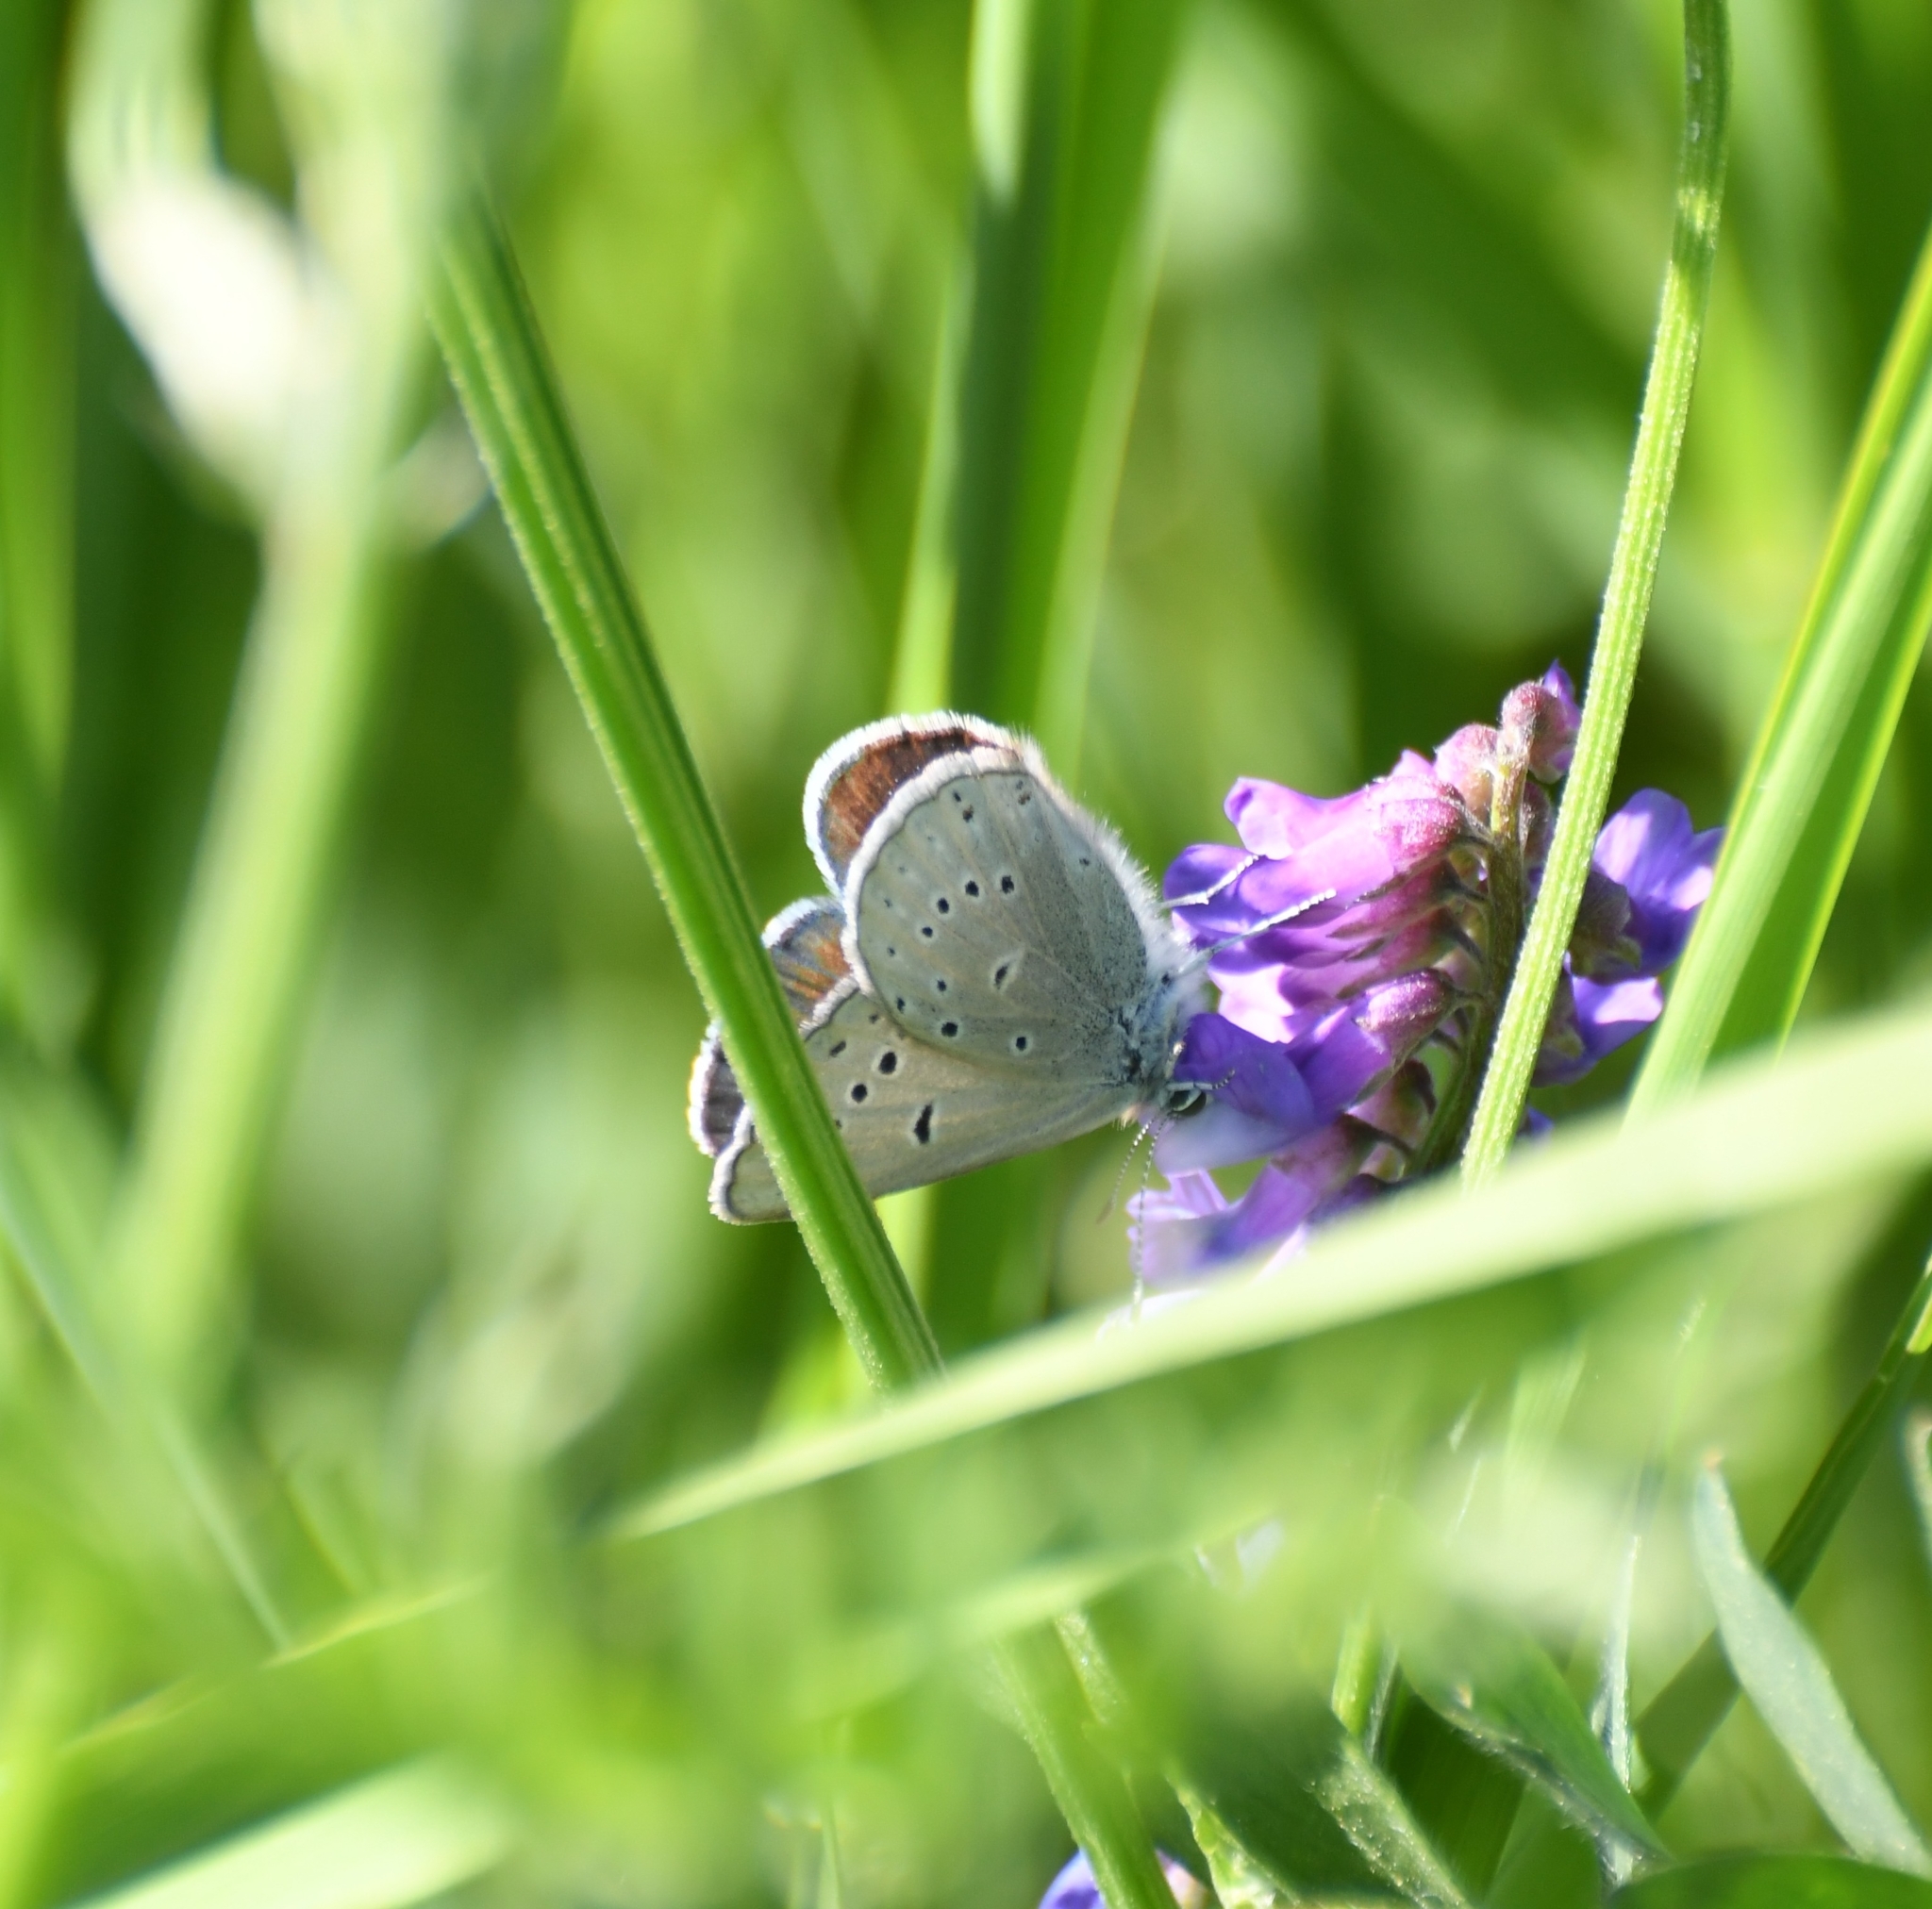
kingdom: Animalia
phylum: Arthropoda
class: Insecta
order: Lepidoptera
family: Lycaenidae
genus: Icaricia
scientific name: Icaricia saepiolus
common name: Greenish blue
